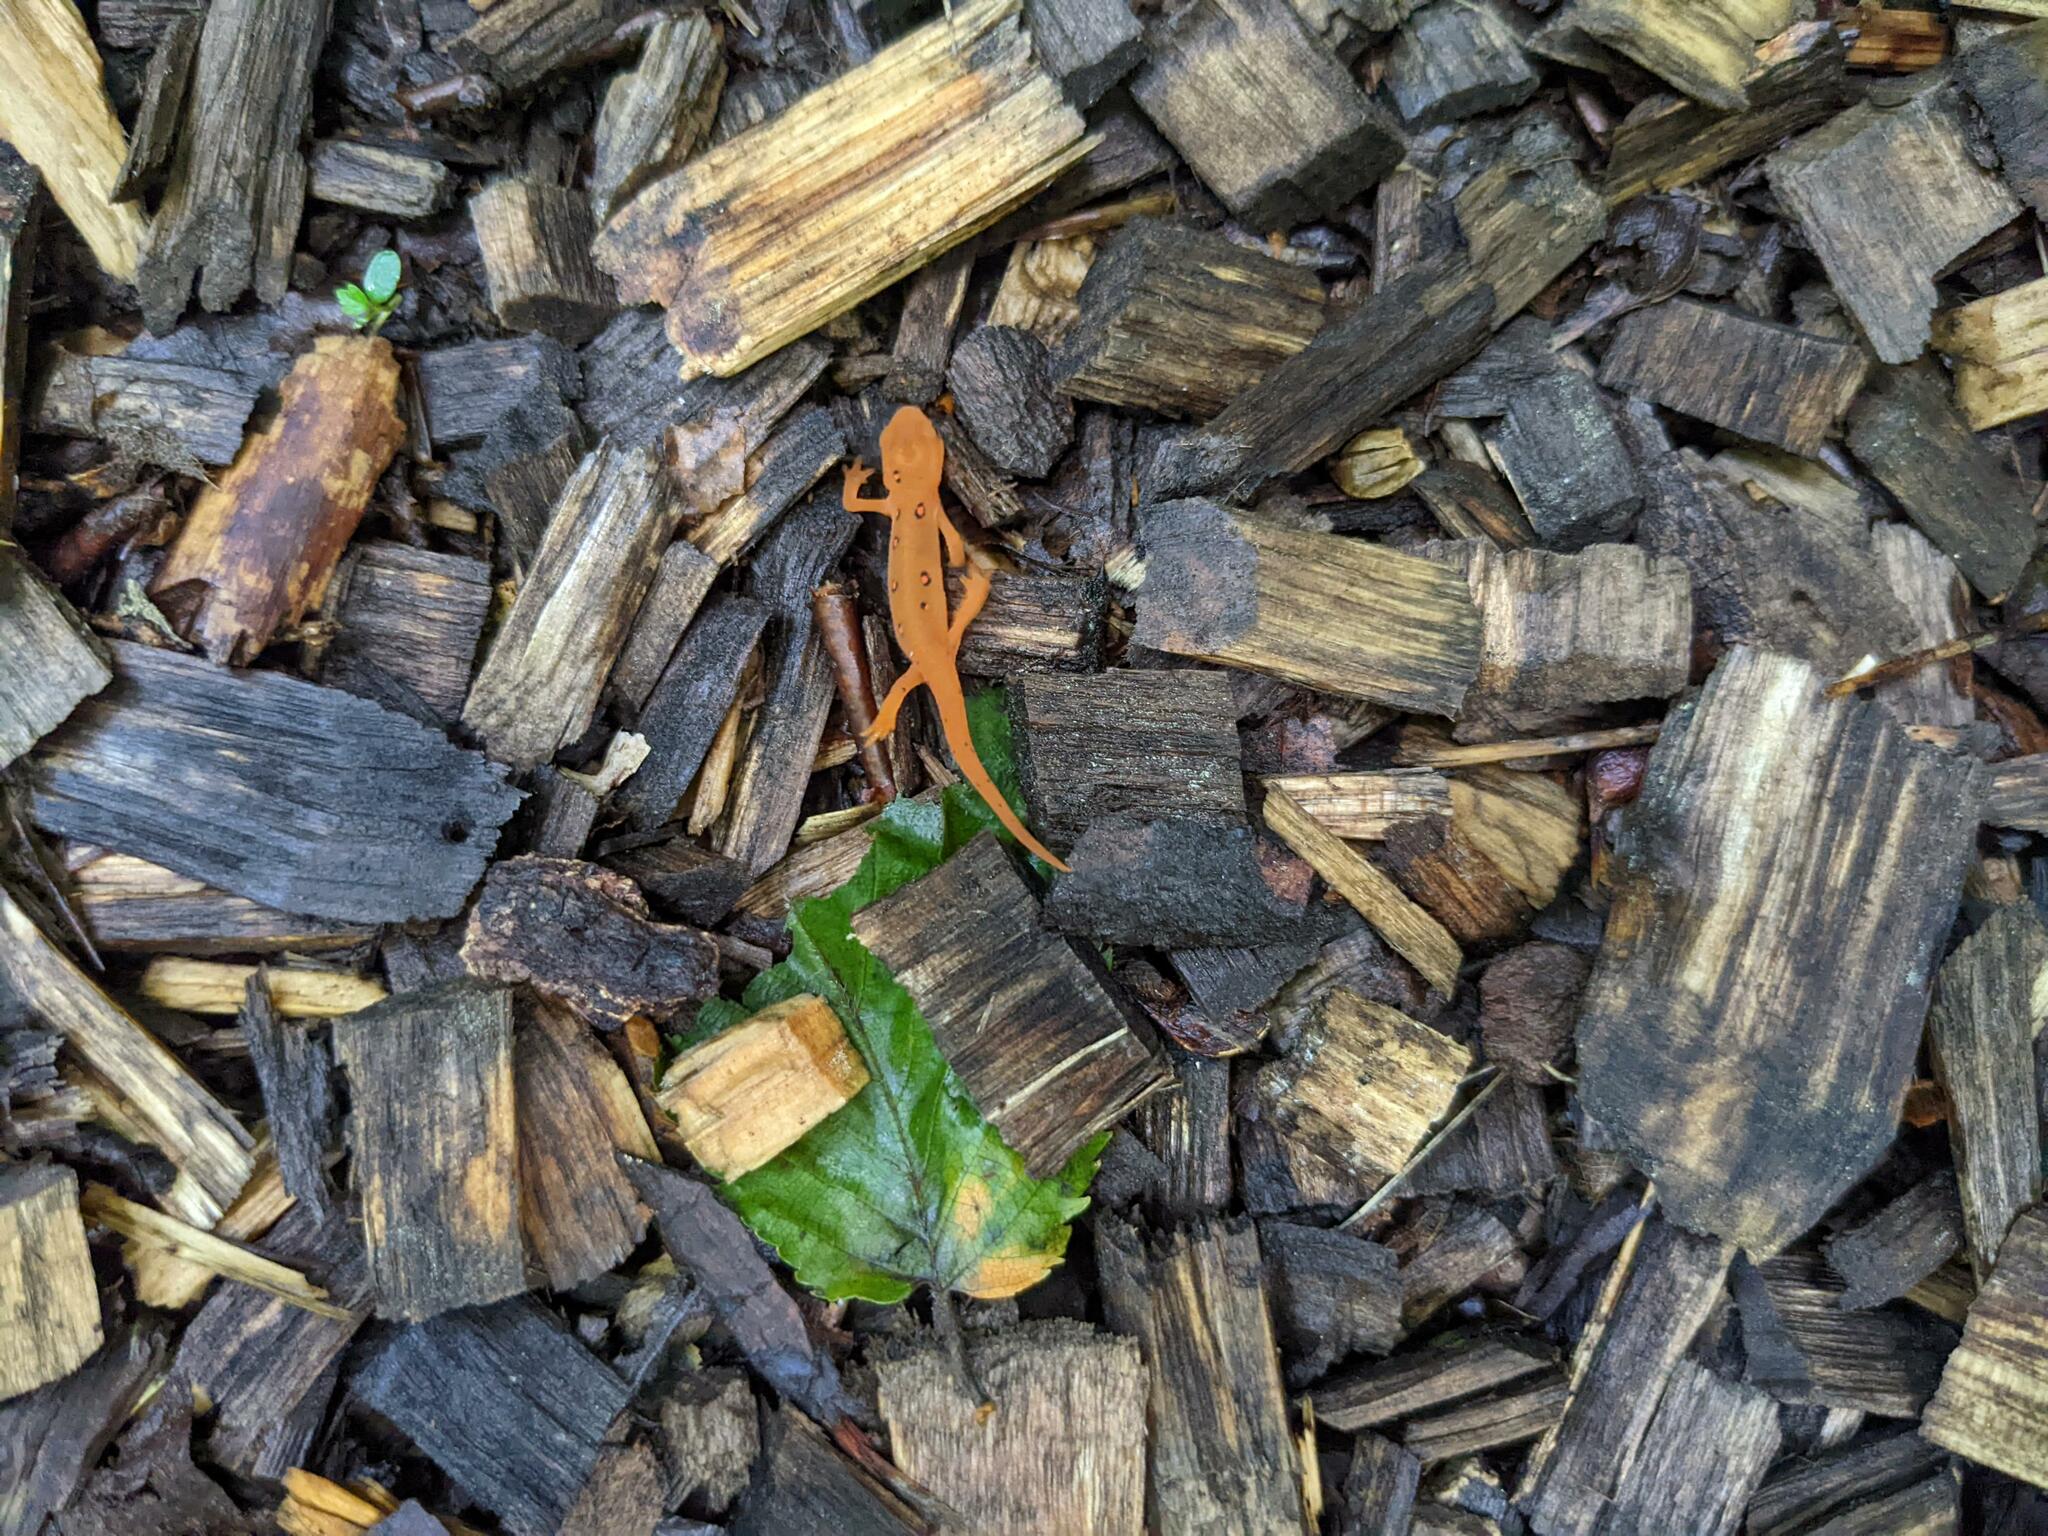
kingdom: Animalia
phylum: Chordata
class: Amphibia
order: Caudata
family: Salamandridae
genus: Notophthalmus
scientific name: Notophthalmus viridescens
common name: Eastern newt
